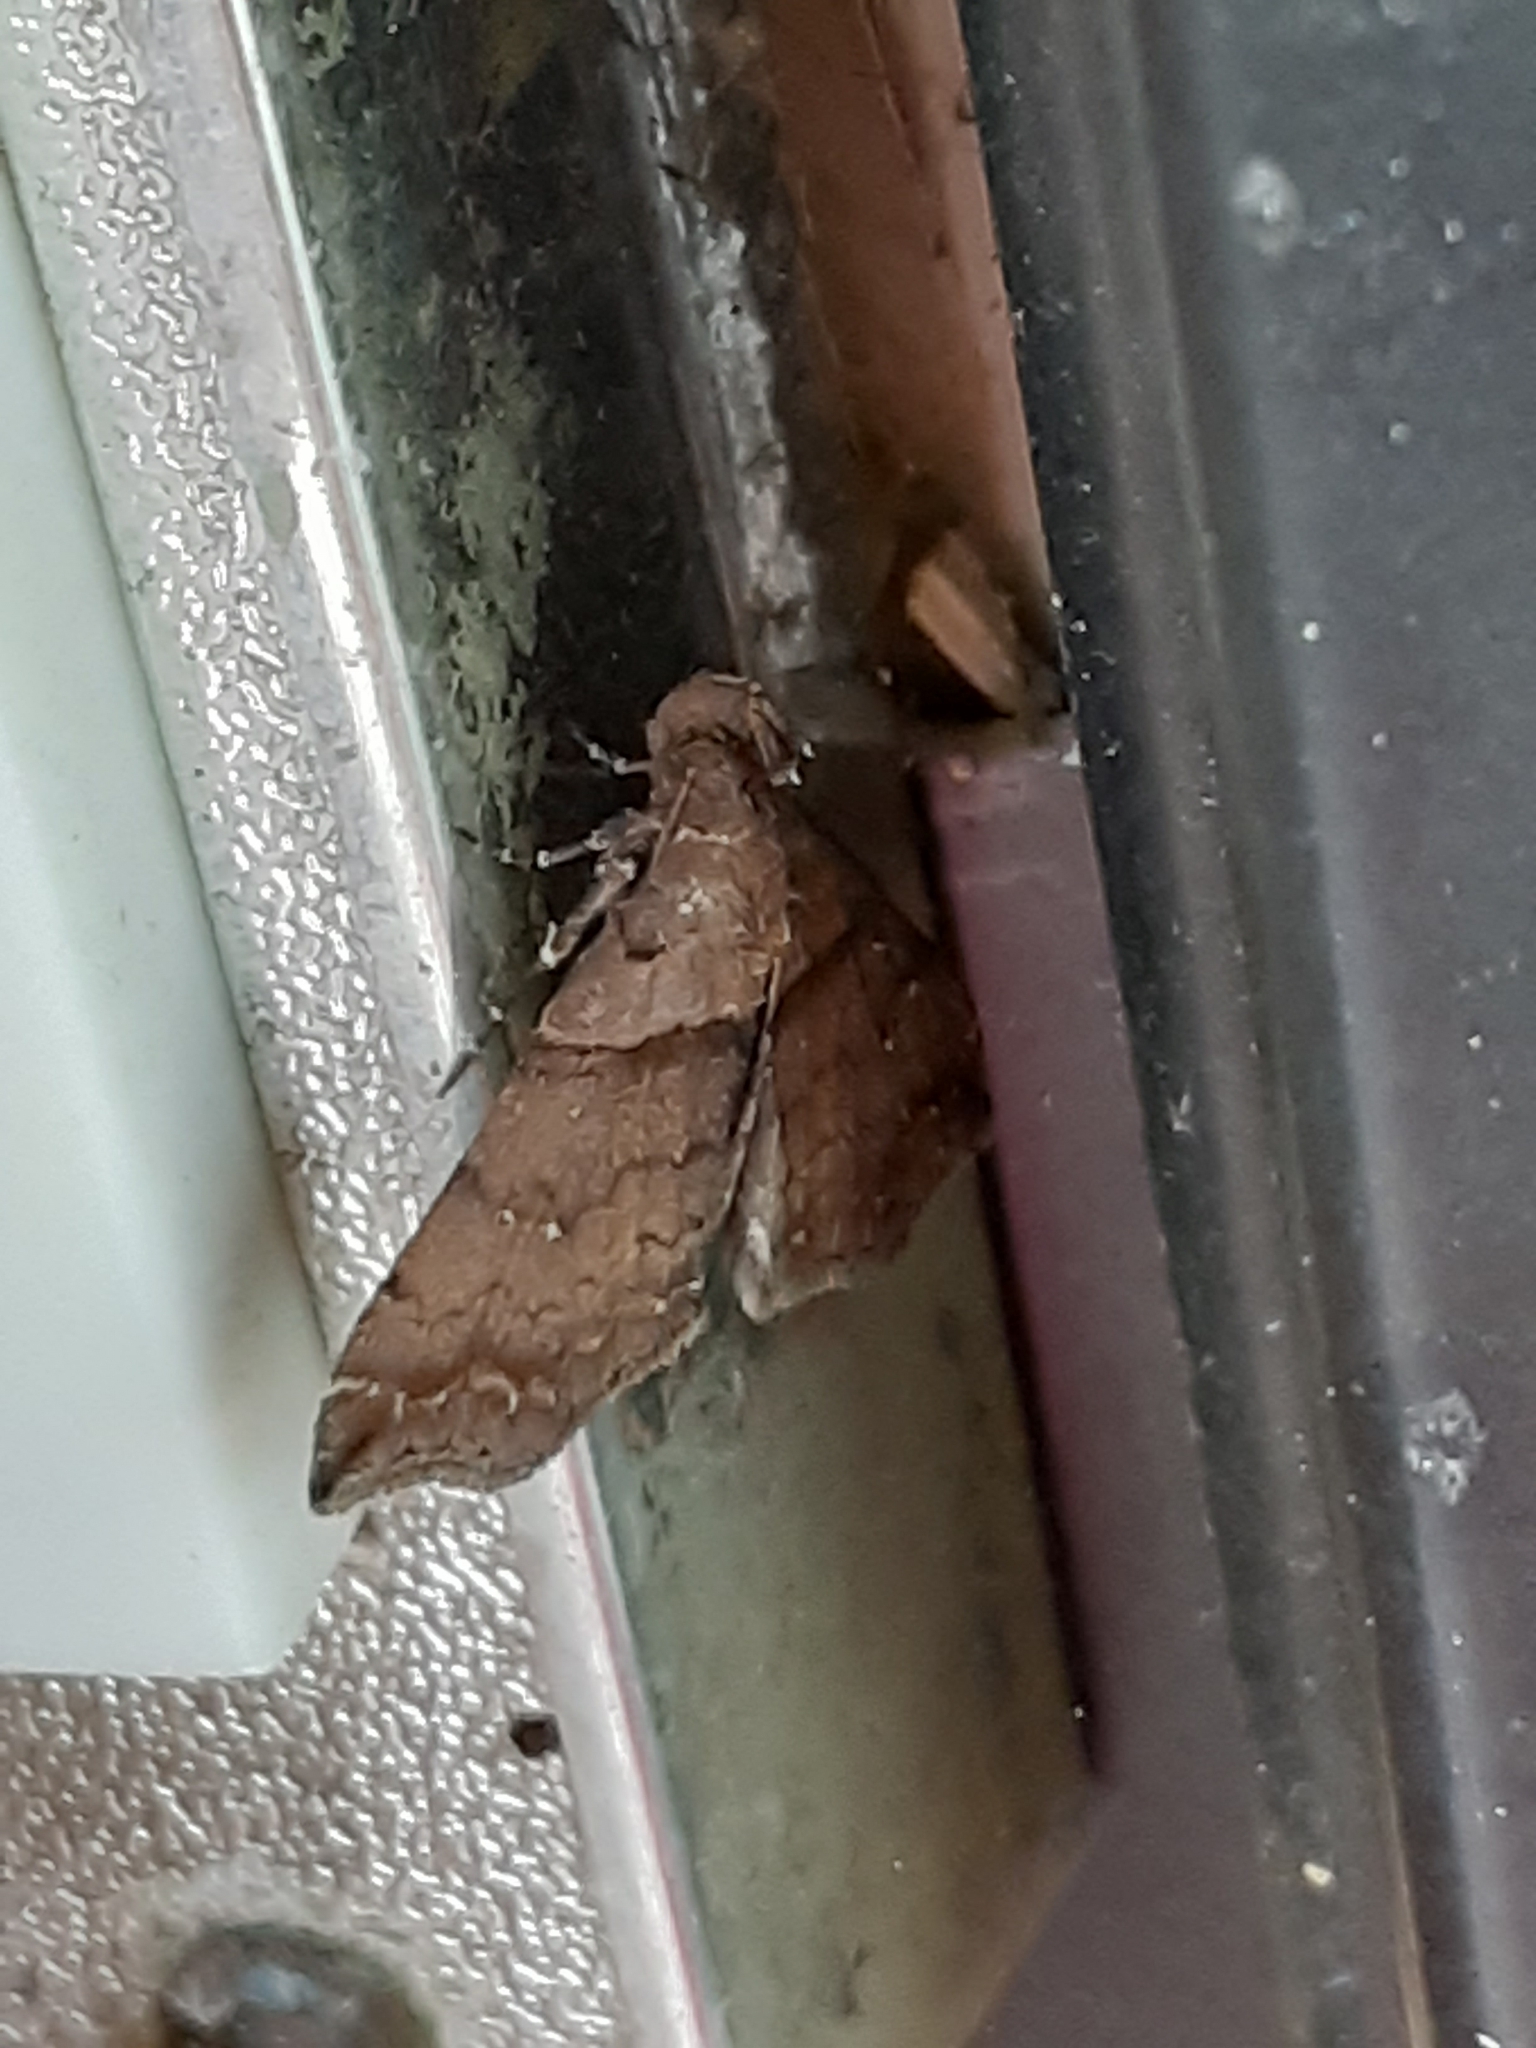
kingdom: Animalia
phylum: Arthropoda
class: Insecta
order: Lepidoptera
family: Erebidae
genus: Lascoria
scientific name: Lascoria ambigualis
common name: Ambiguous moth
